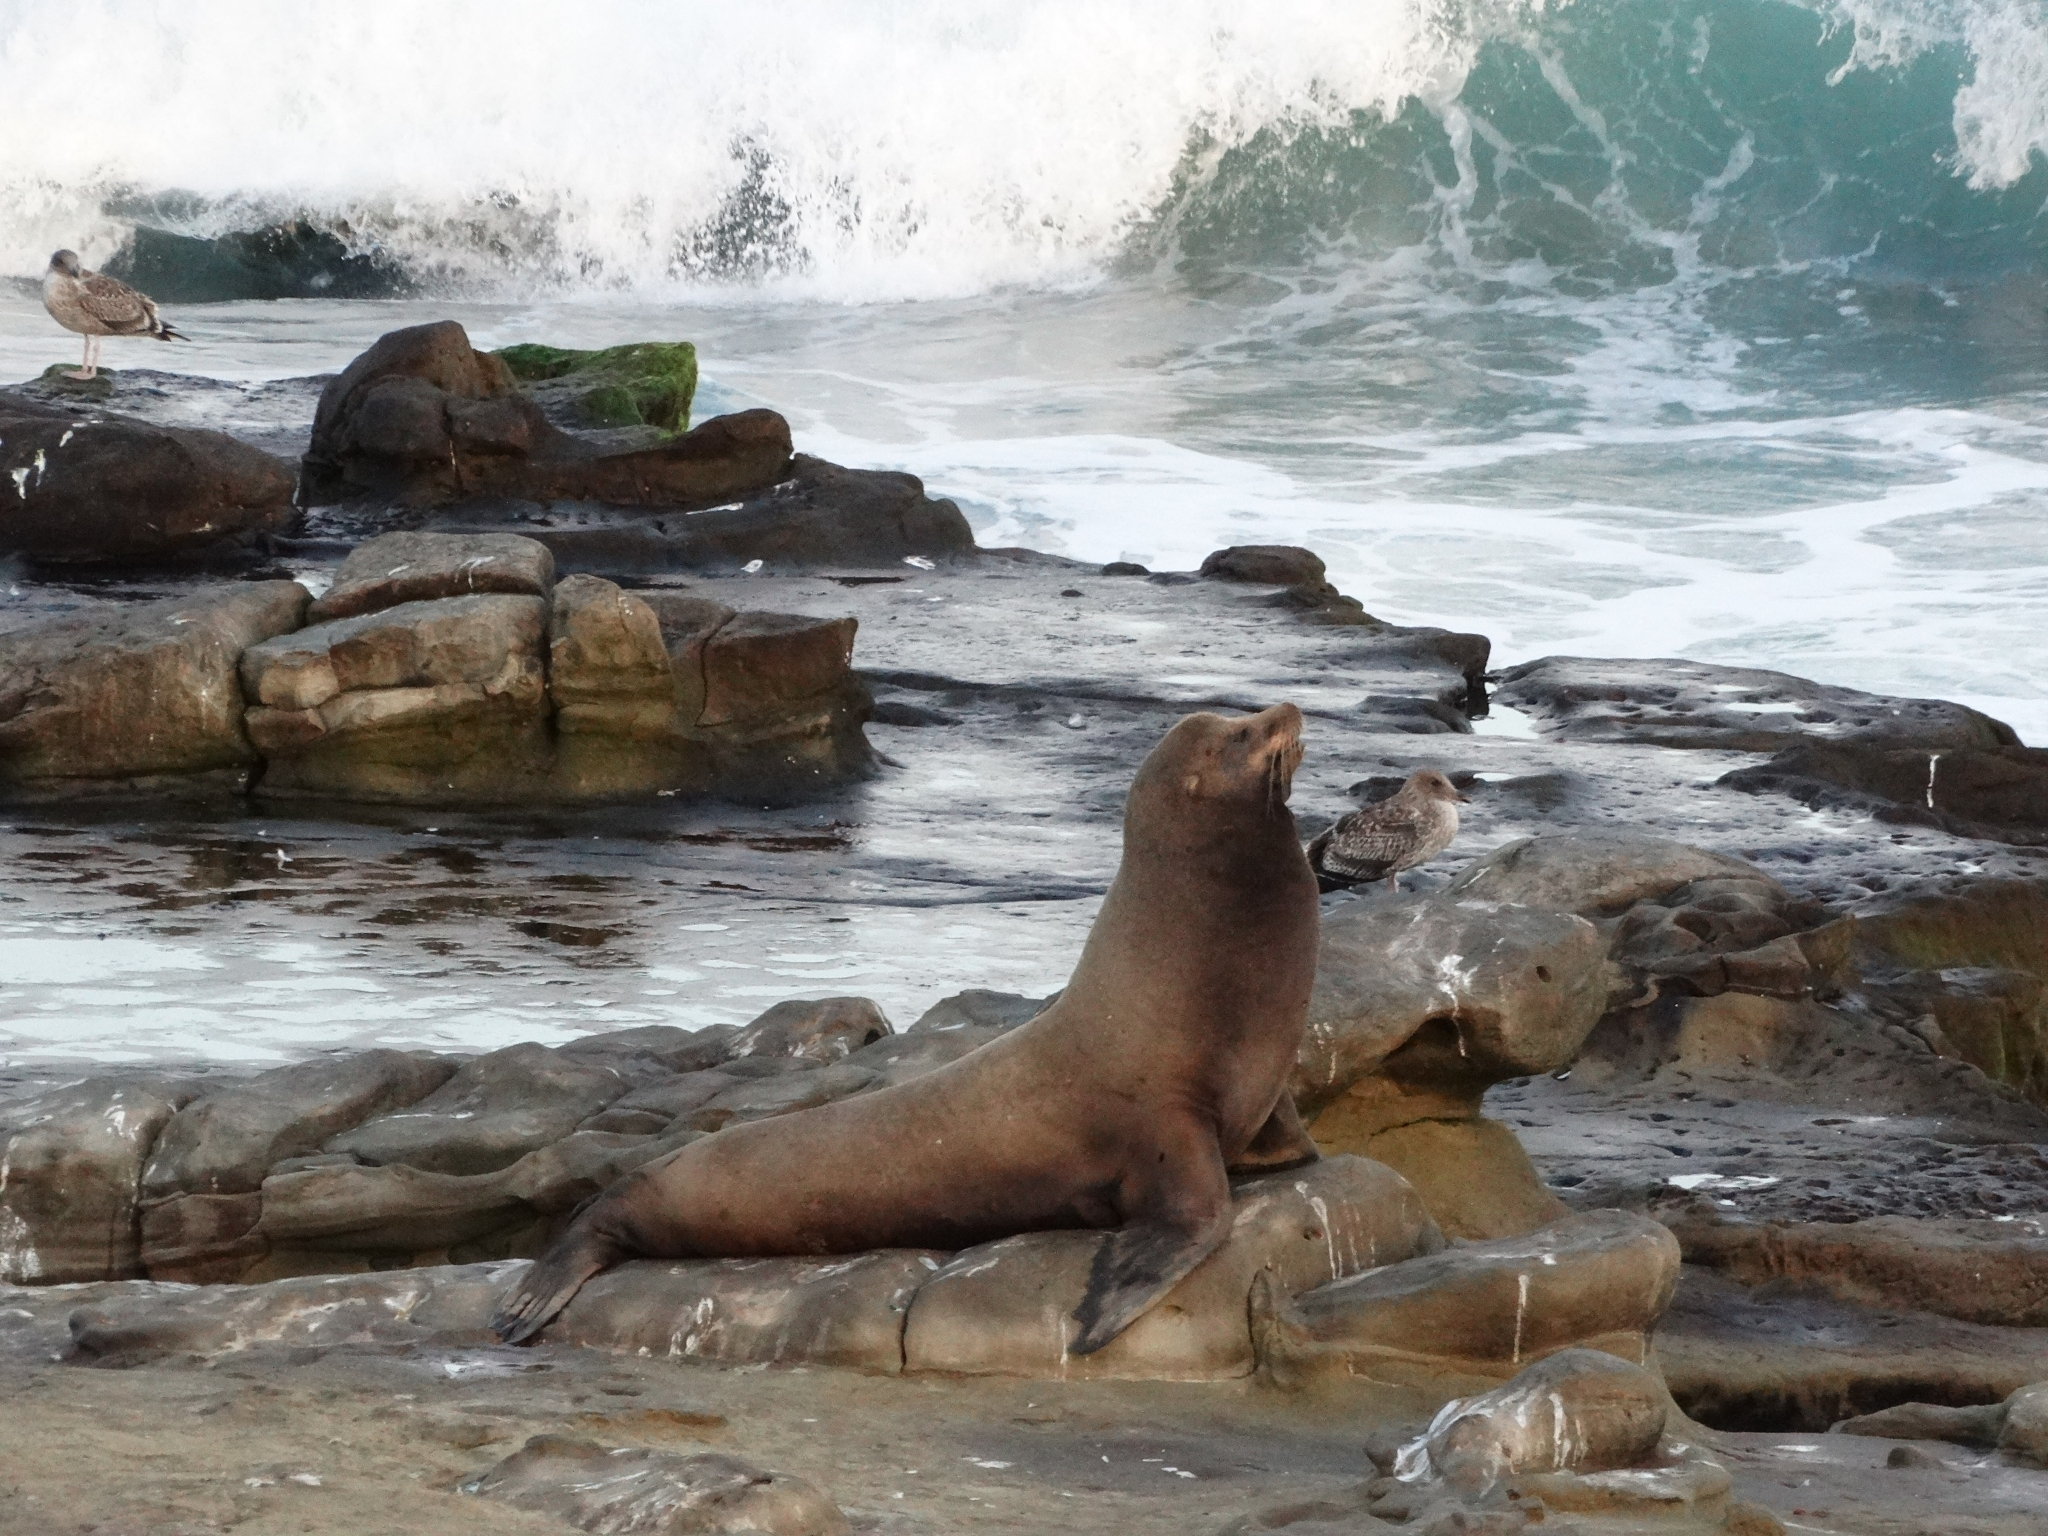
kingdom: Animalia
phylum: Chordata
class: Mammalia
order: Carnivora
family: Otariidae
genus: Zalophus
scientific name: Zalophus californianus
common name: California sea lion
